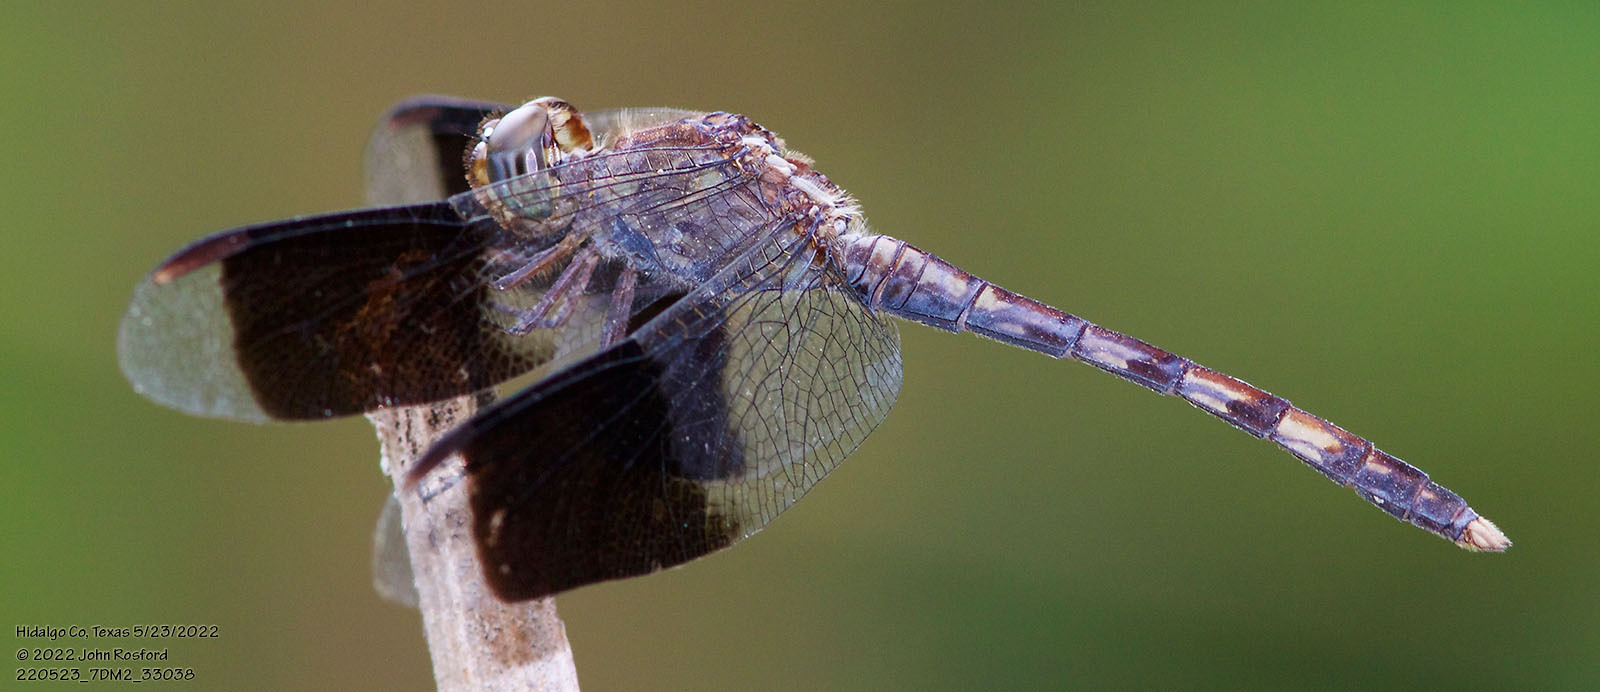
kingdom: Animalia
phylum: Arthropoda
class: Insecta
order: Odonata
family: Libellulidae
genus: Erythrodiplax
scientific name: Erythrodiplax umbrata
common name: Band-winged dragonlet
